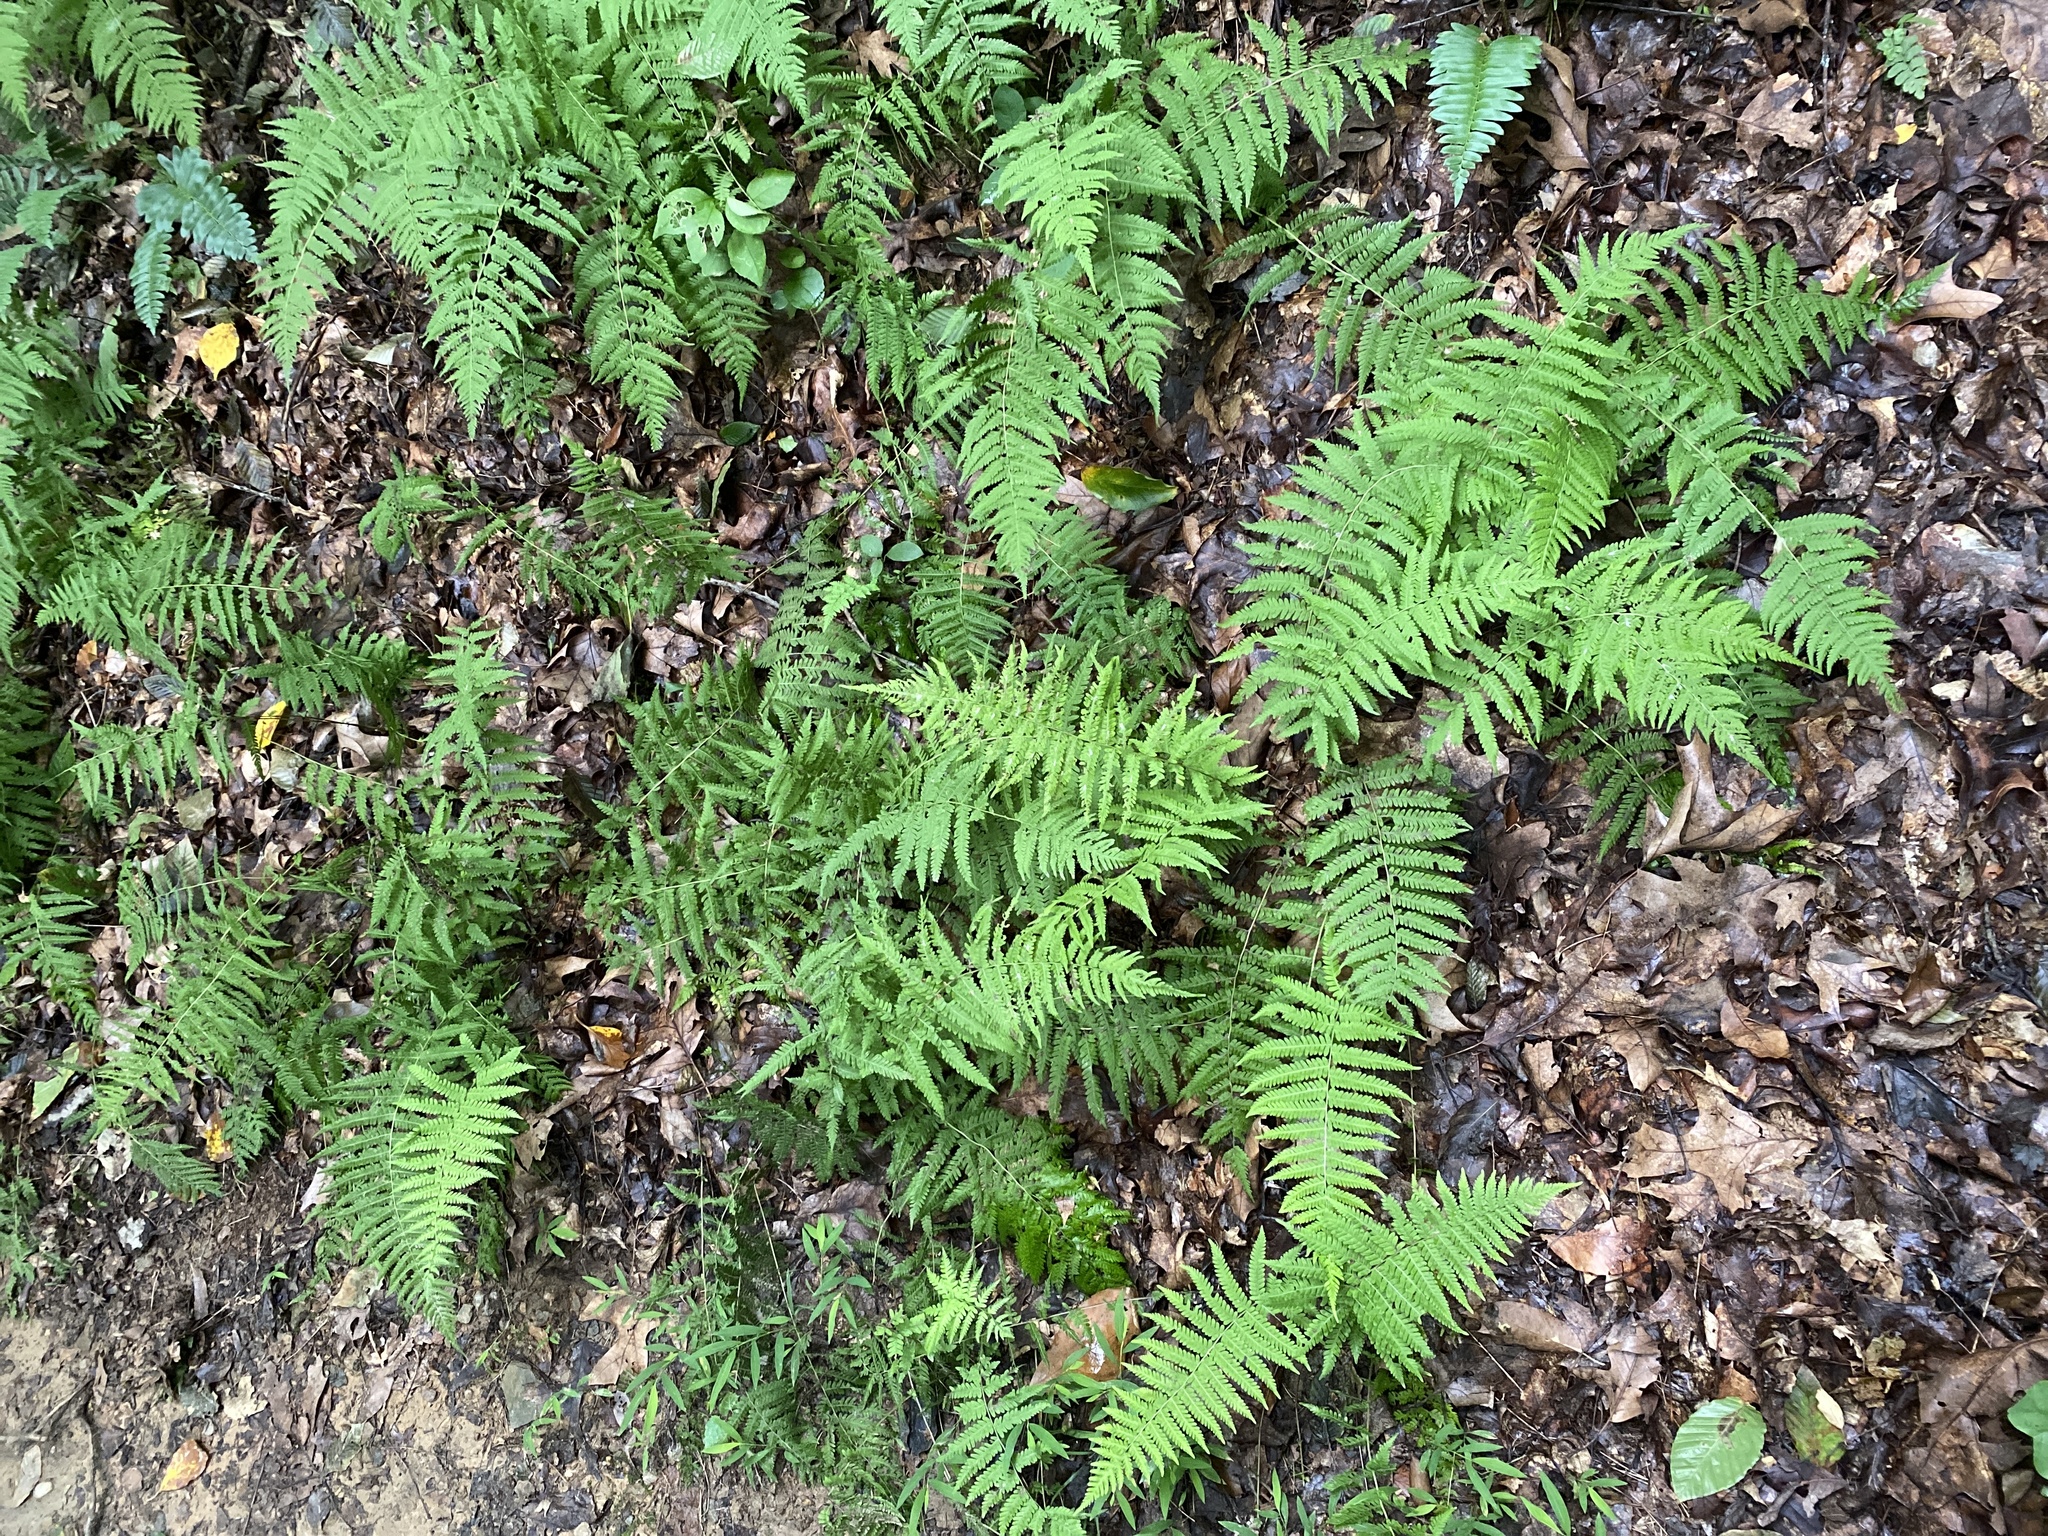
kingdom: Plantae
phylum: Tracheophyta
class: Polypodiopsida
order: Polypodiales
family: Thelypteridaceae
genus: Amauropelta
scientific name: Amauropelta noveboracensis
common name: New york fern
